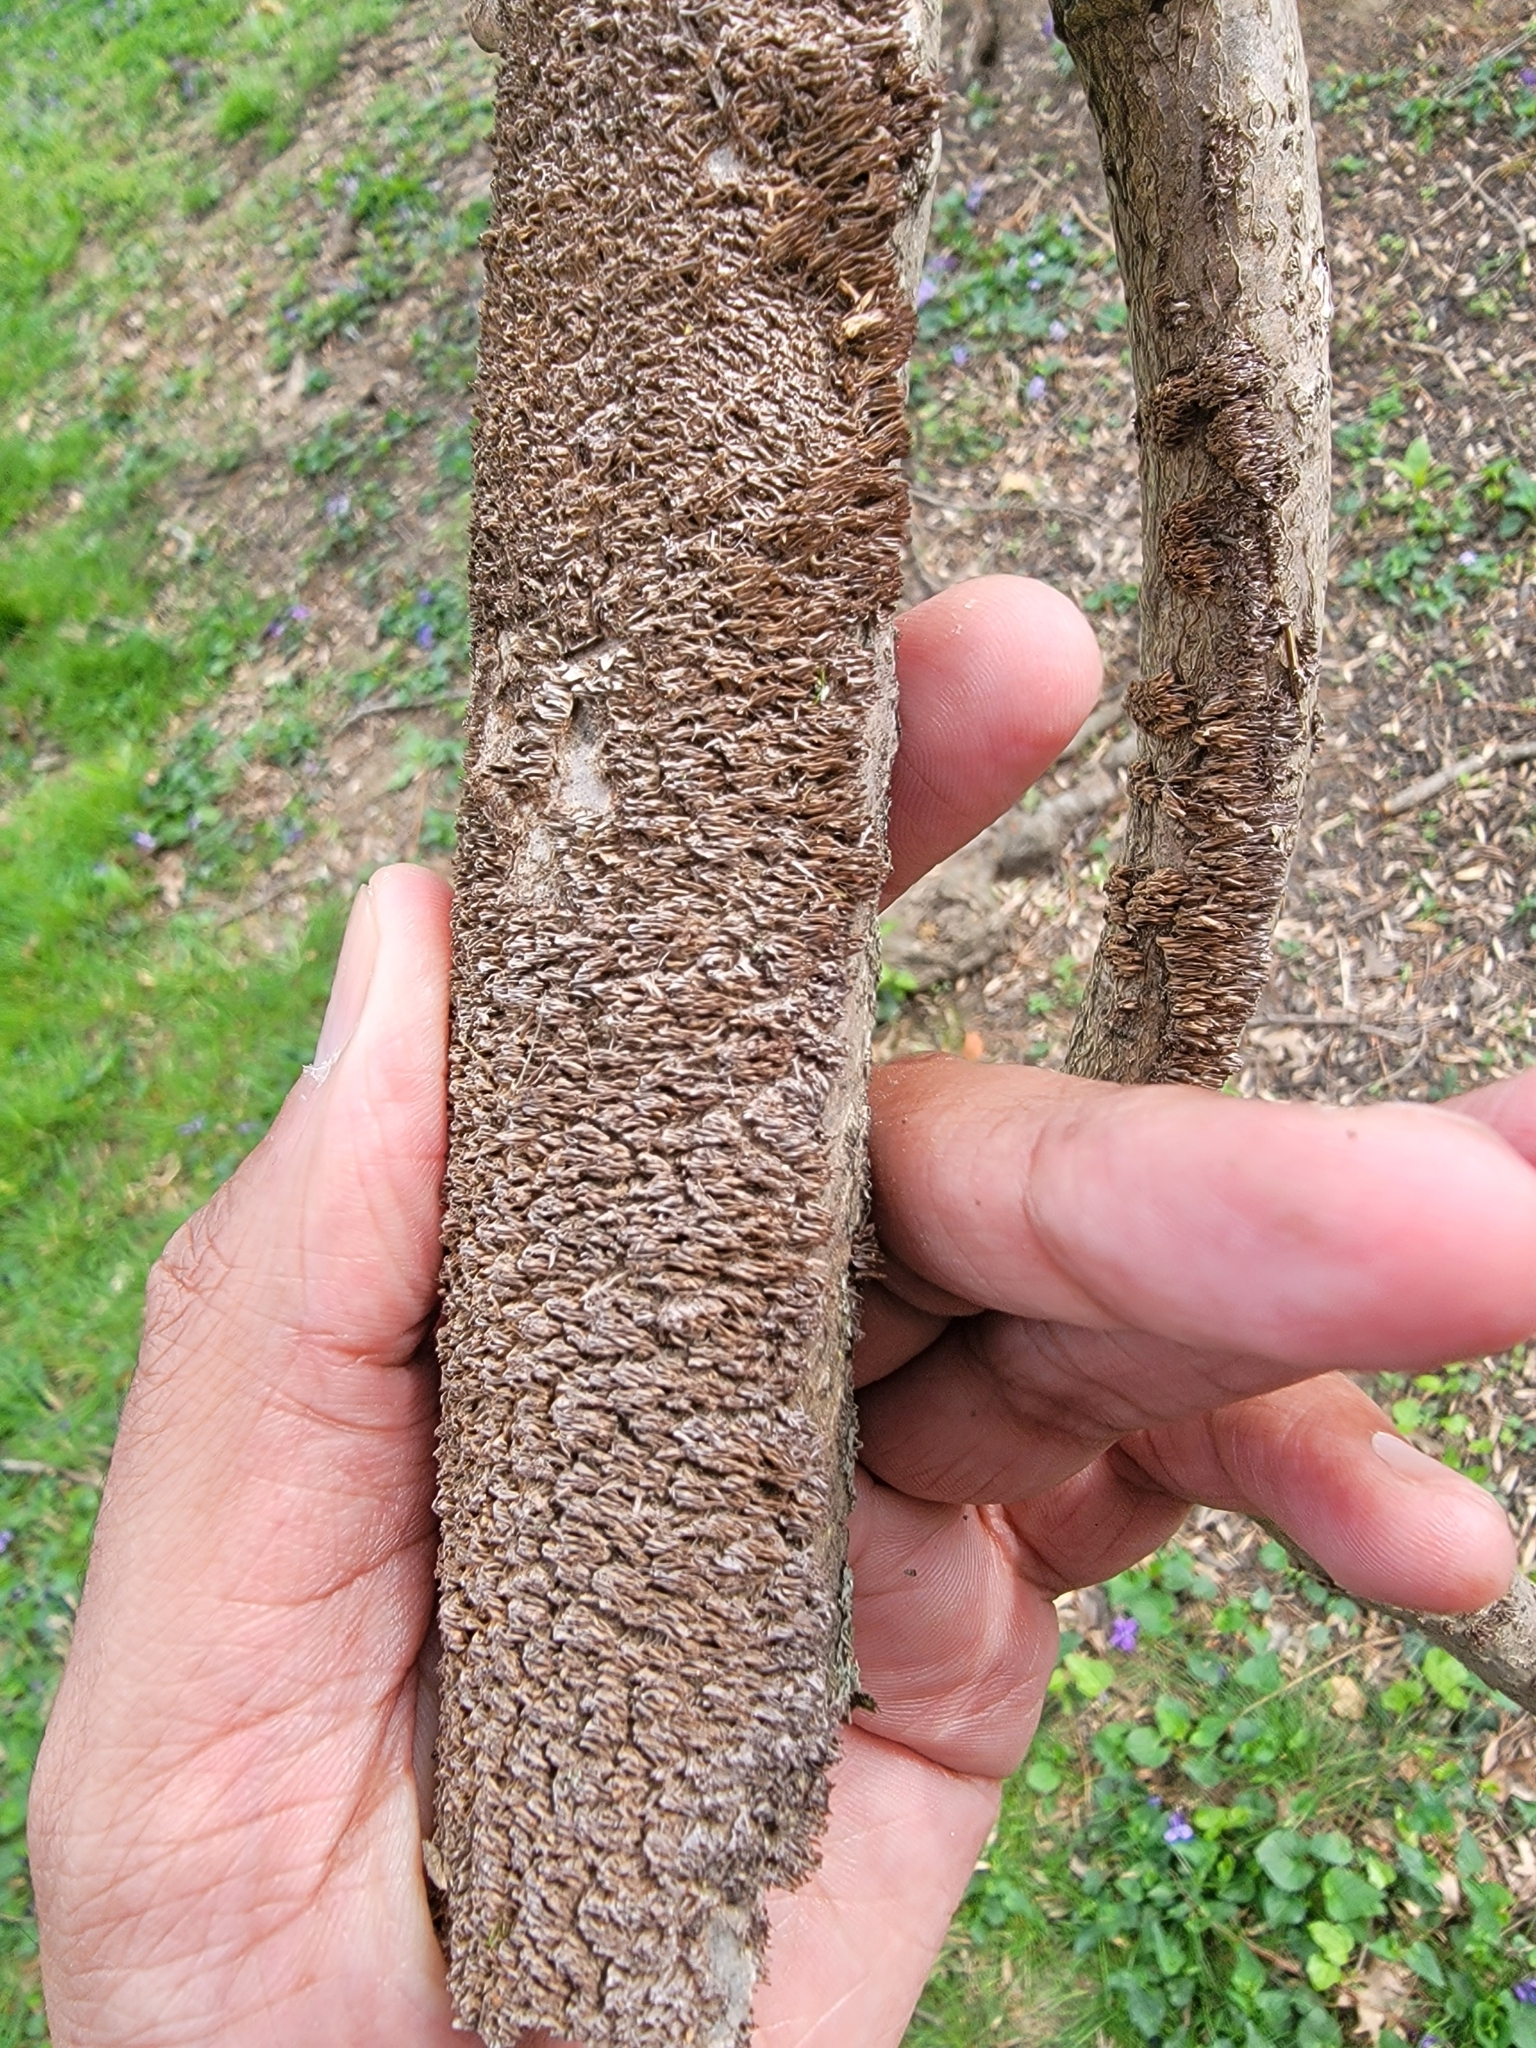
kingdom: Fungi
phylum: Basidiomycota
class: Agaricomycetes
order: Hymenochaetales
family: Hymenochaetaceae
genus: Hydnoporia
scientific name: Hydnoporia olivacea
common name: Brown-toothed crust fungus
